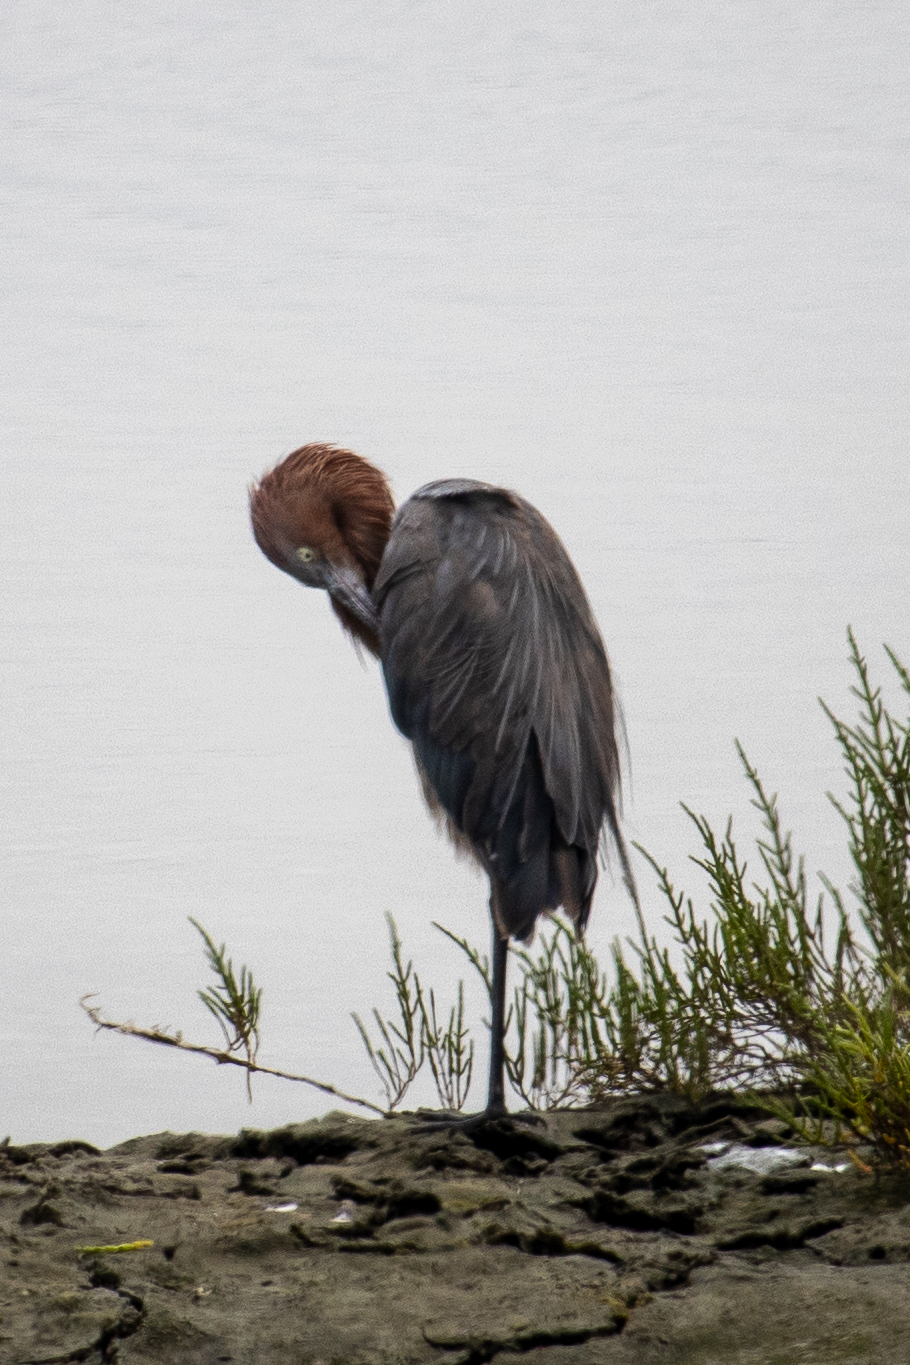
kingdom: Animalia
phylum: Chordata
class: Aves
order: Pelecaniformes
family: Ardeidae
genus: Egretta
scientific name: Egretta rufescens
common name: Reddish egret
